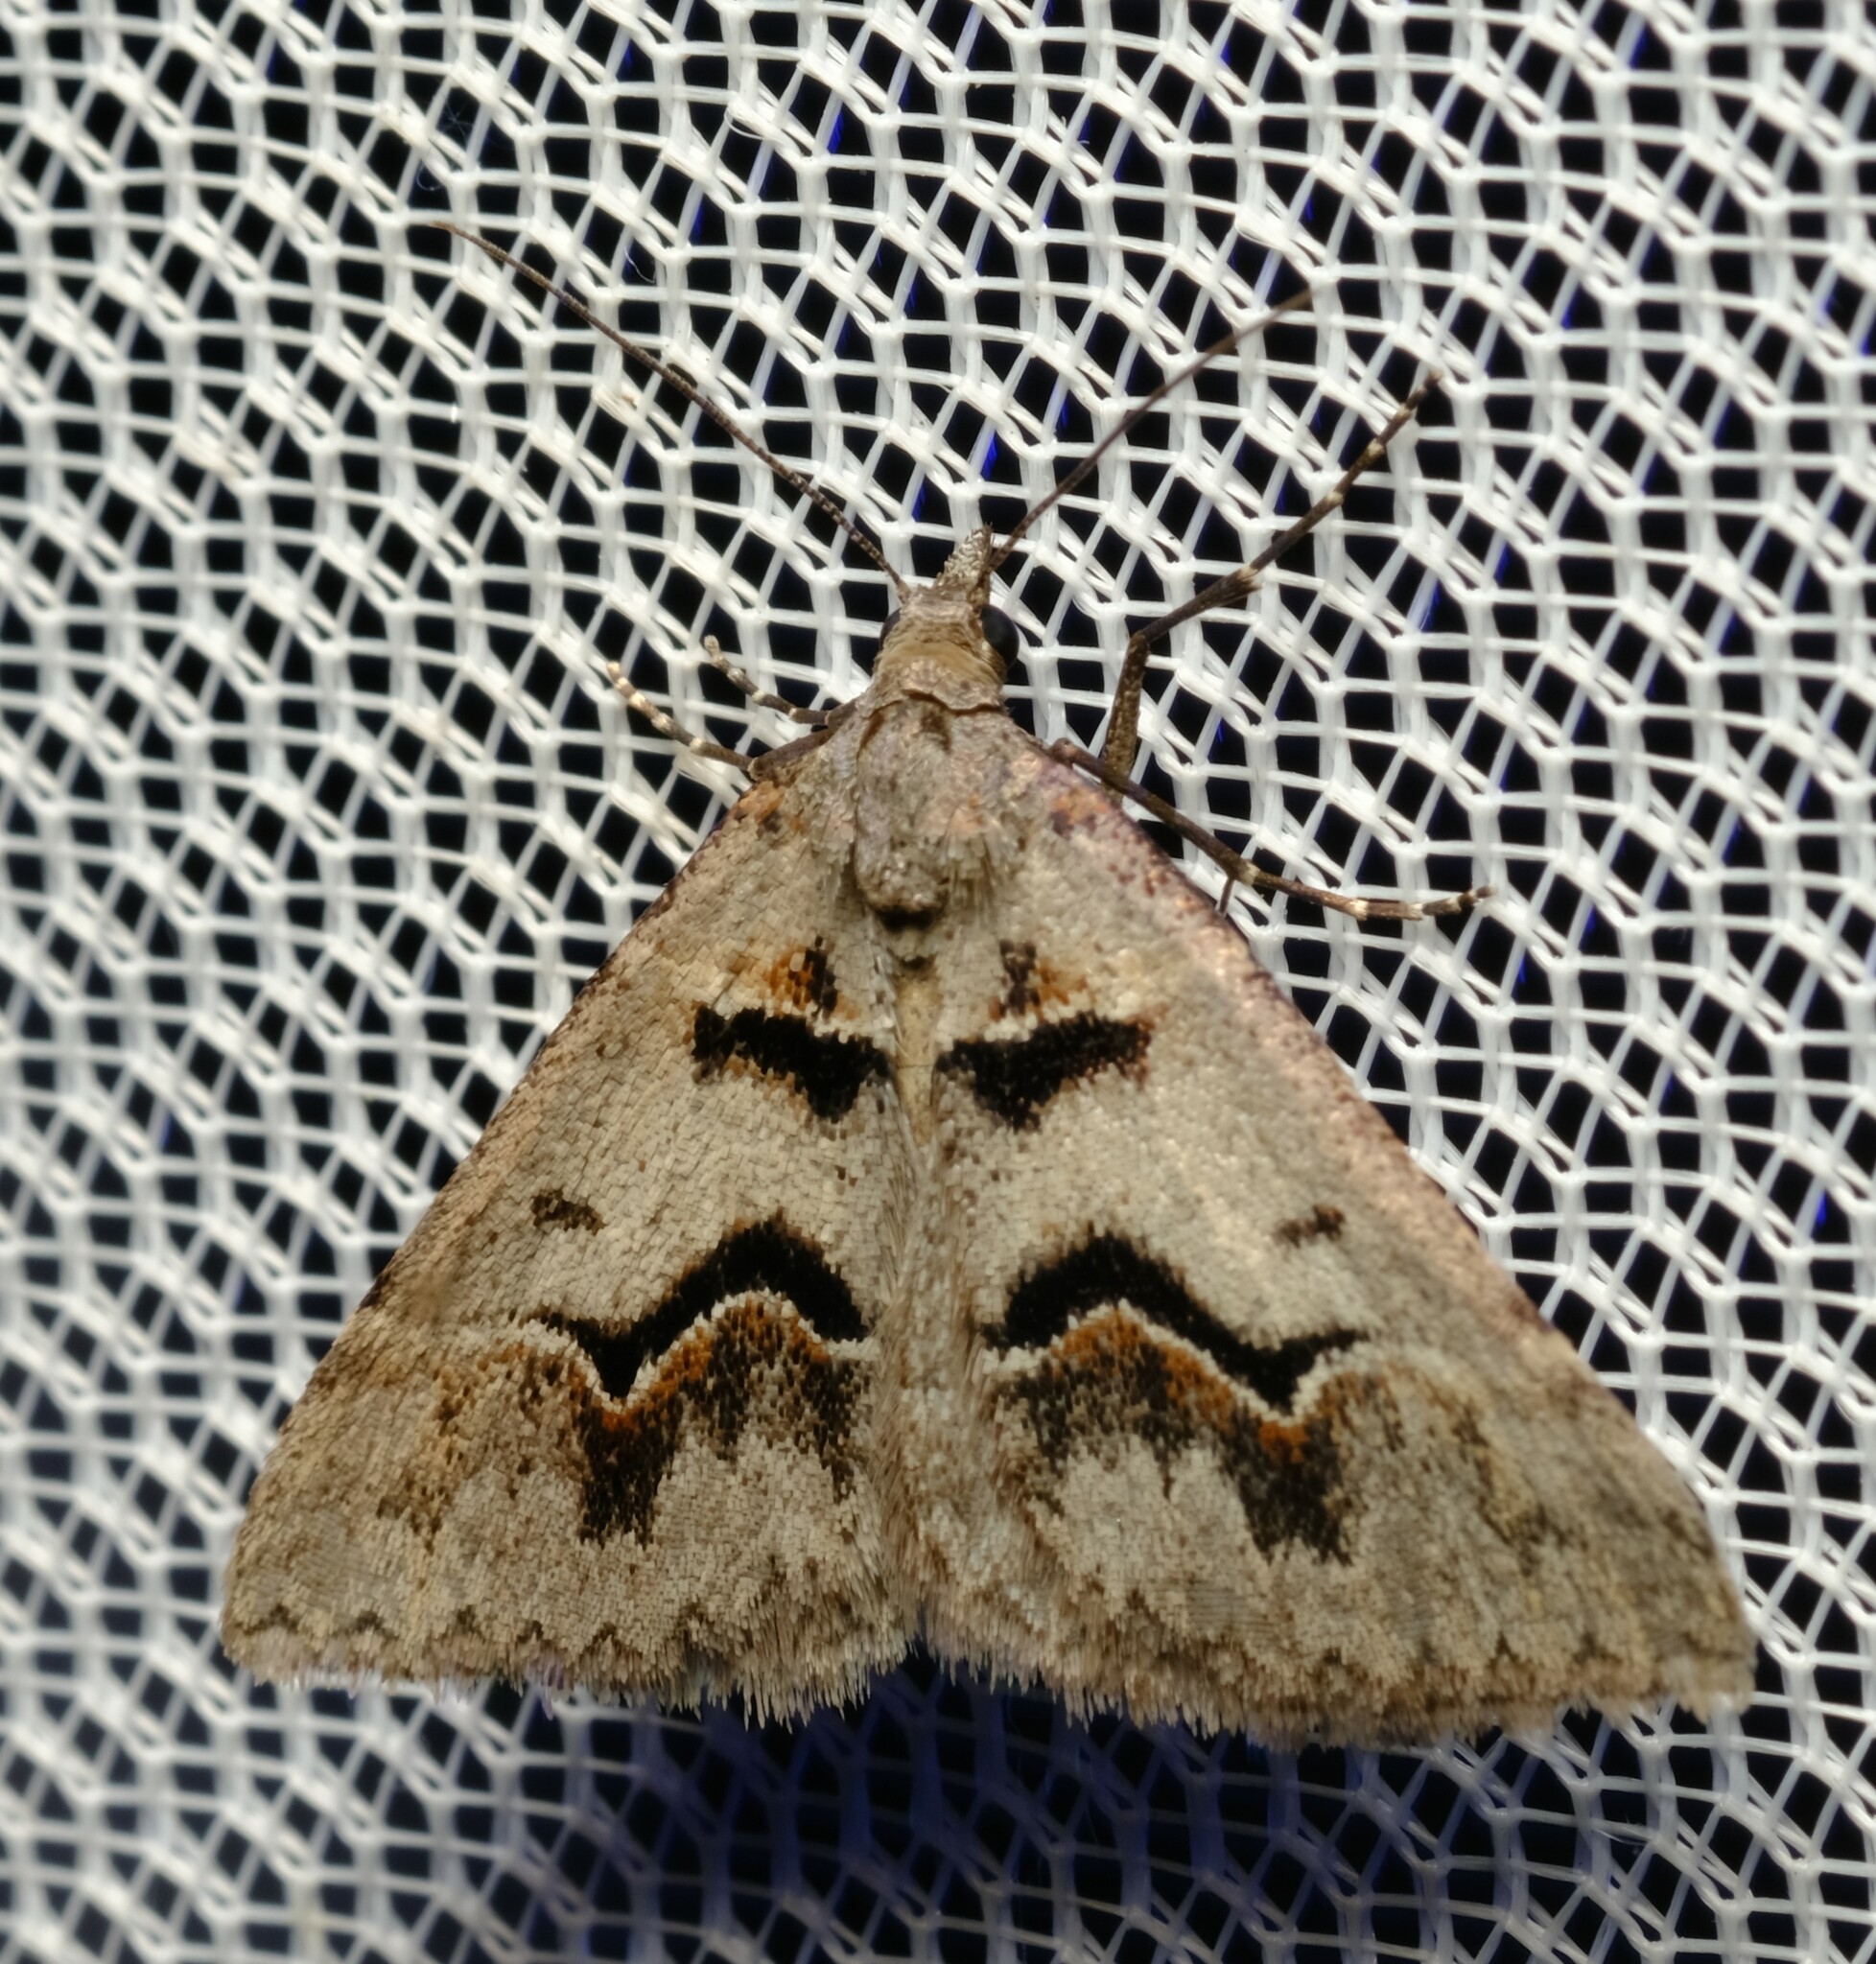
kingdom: Animalia
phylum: Arthropoda
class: Insecta
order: Lepidoptera
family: Geometridae
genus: Dichromodes
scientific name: Dichromodes atrosignata
